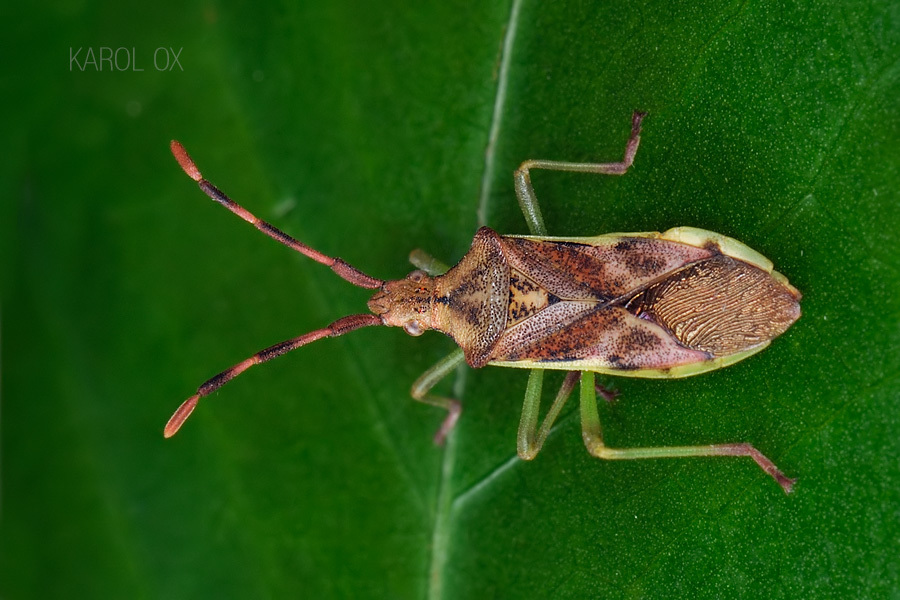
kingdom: Animalia
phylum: Arthropoda
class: Insecta
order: Hemiptera
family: Coreidae
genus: Gonocerus
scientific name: Gonocerus juniperi
